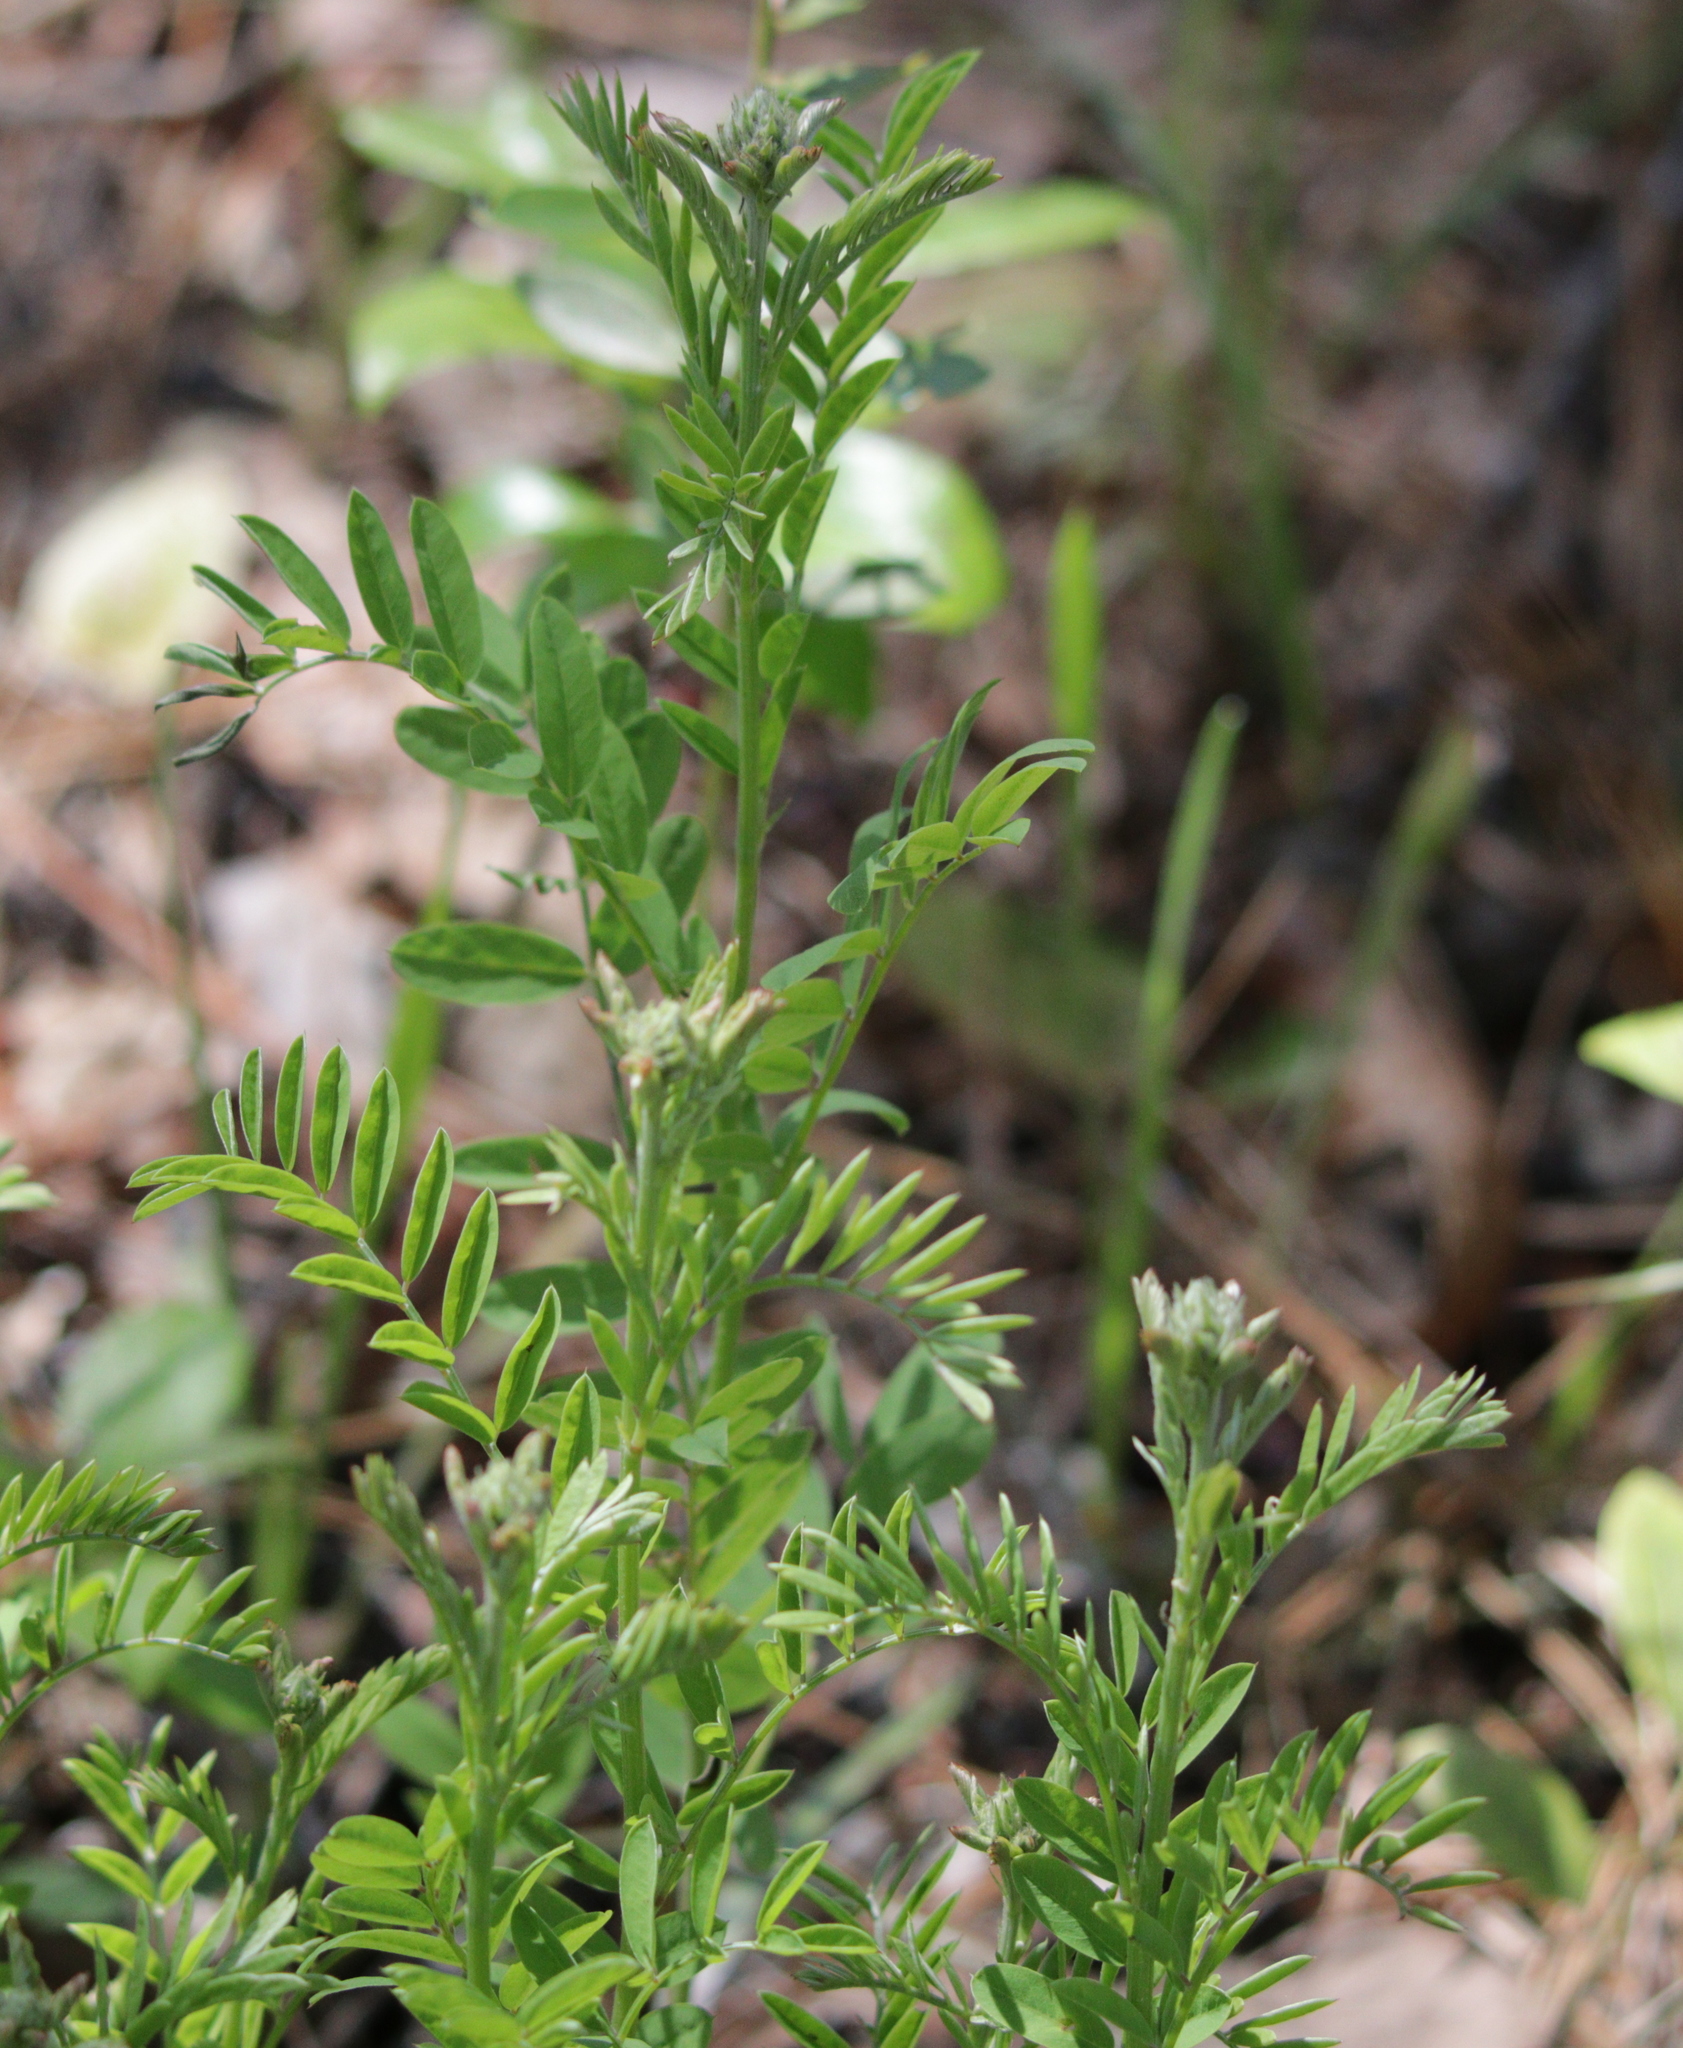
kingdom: Plantae
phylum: Tracheophyta
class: Magnoliopsida
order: Fabales
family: Fabaceae
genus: Tephrosia
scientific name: Tephrosia virginiana
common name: Rabbit-pea
